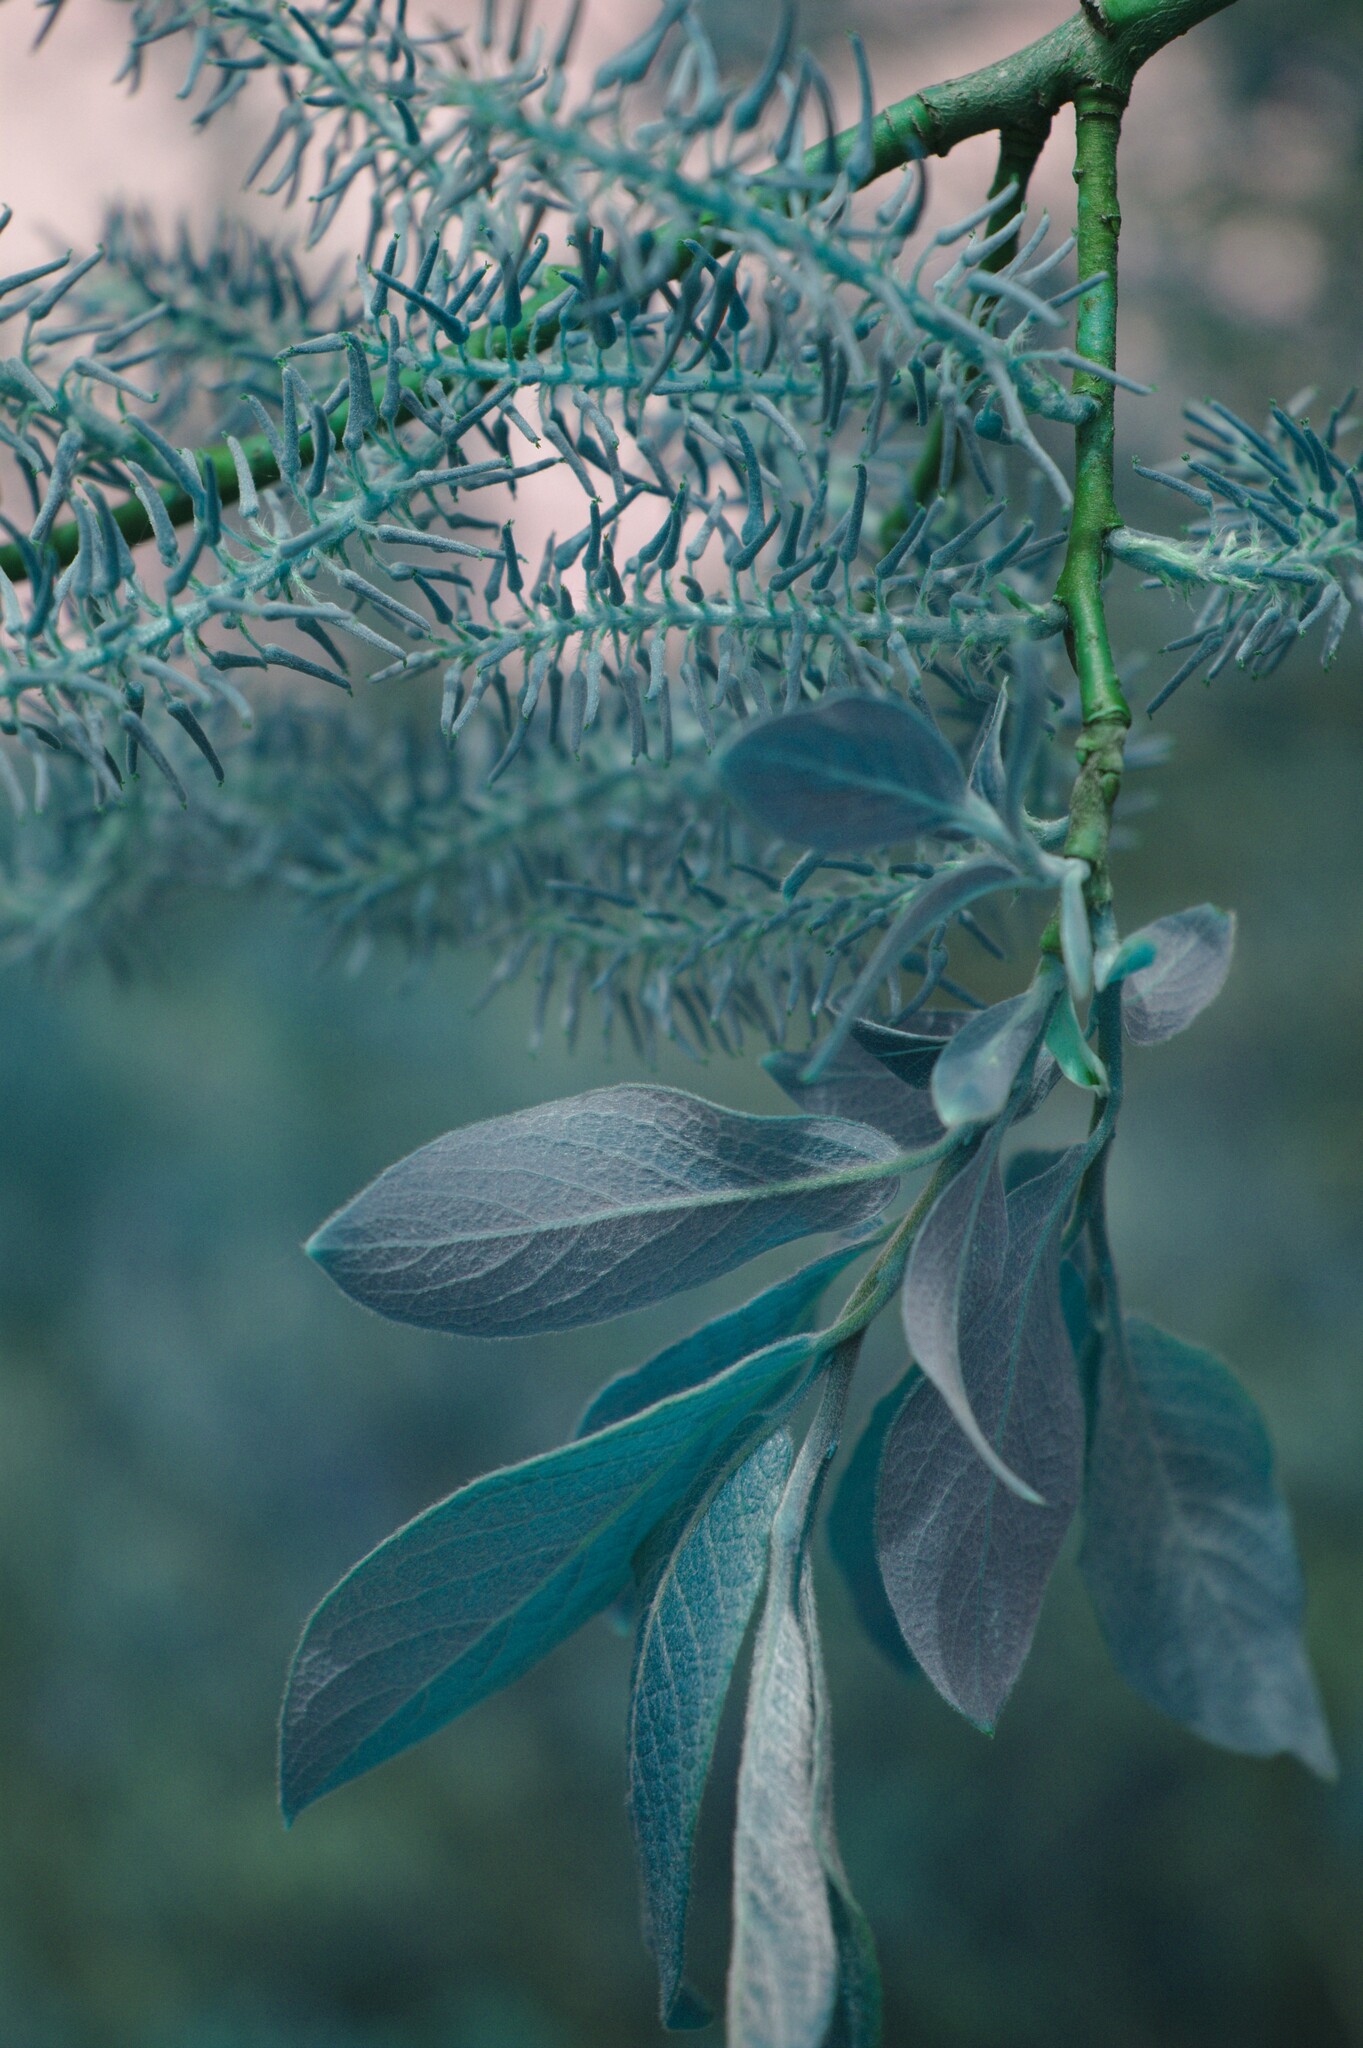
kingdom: Plantae
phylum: Tracheophyta
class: Magnoliopsida
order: Malpighiales
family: Salicaceae
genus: Salix
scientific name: Salix bebbiana
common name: Bebb's willow
